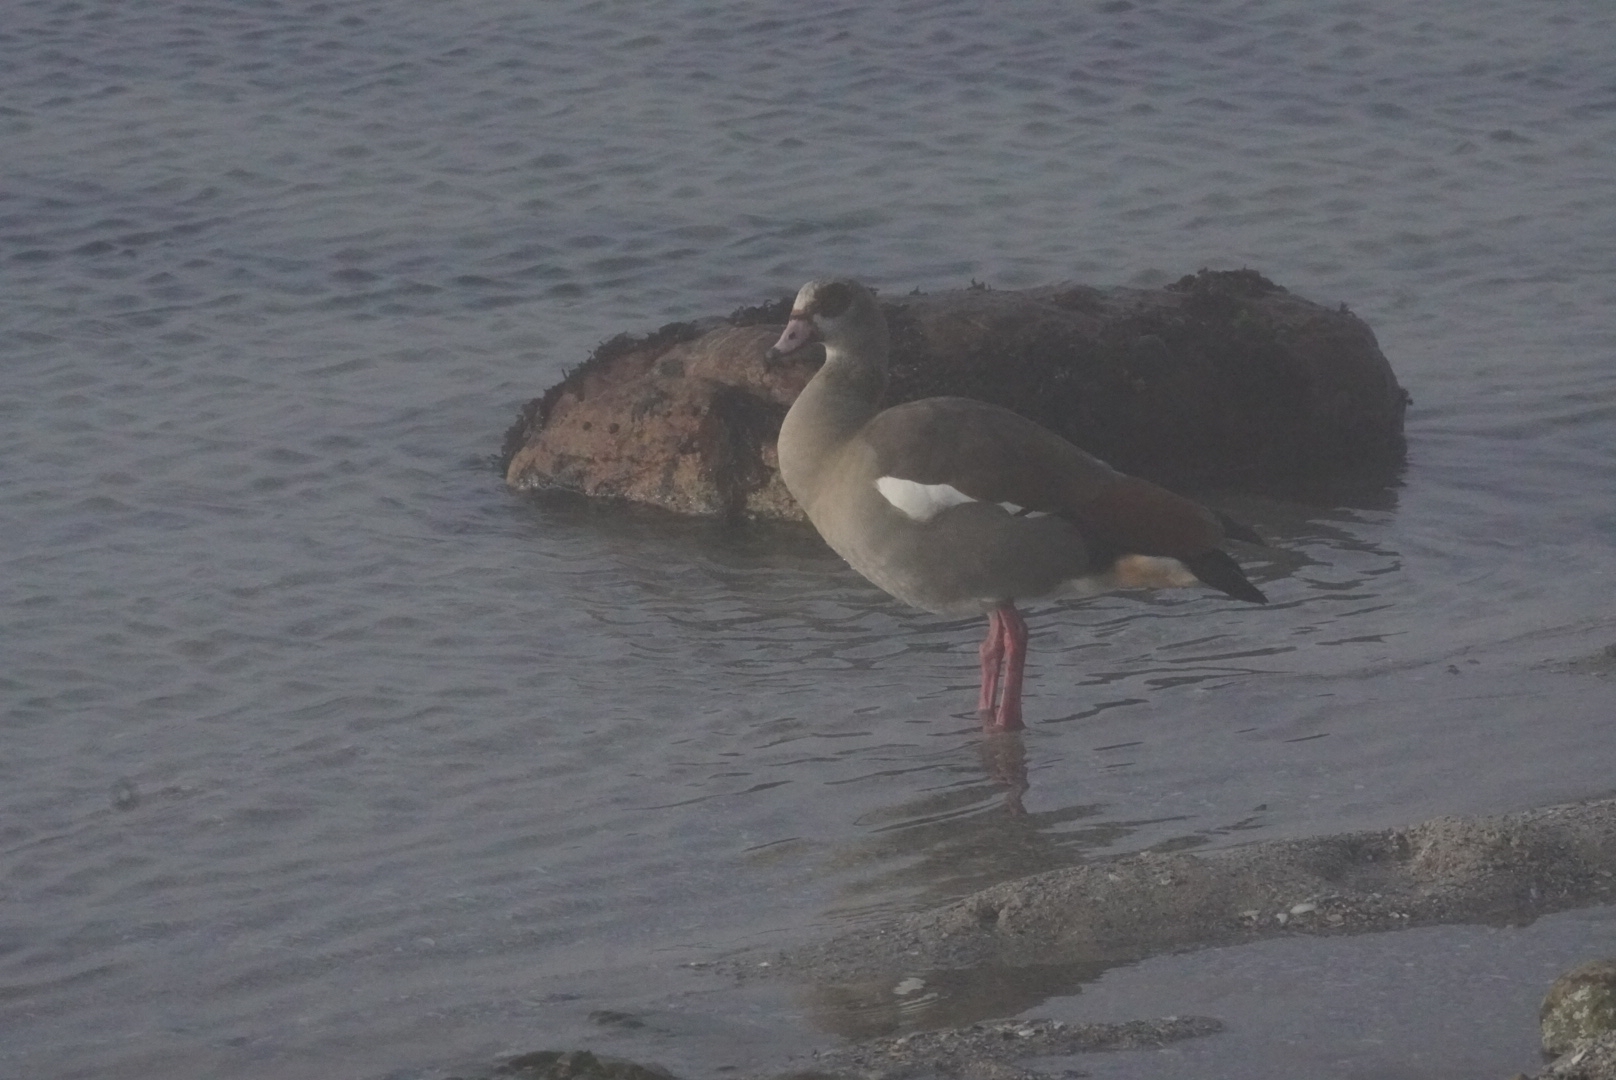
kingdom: Animalia
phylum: Chordata
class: Aves
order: Anseriformes
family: Anatidae
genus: Alopochen
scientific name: Alopochen aegyptiaca
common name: Egyptian goose
